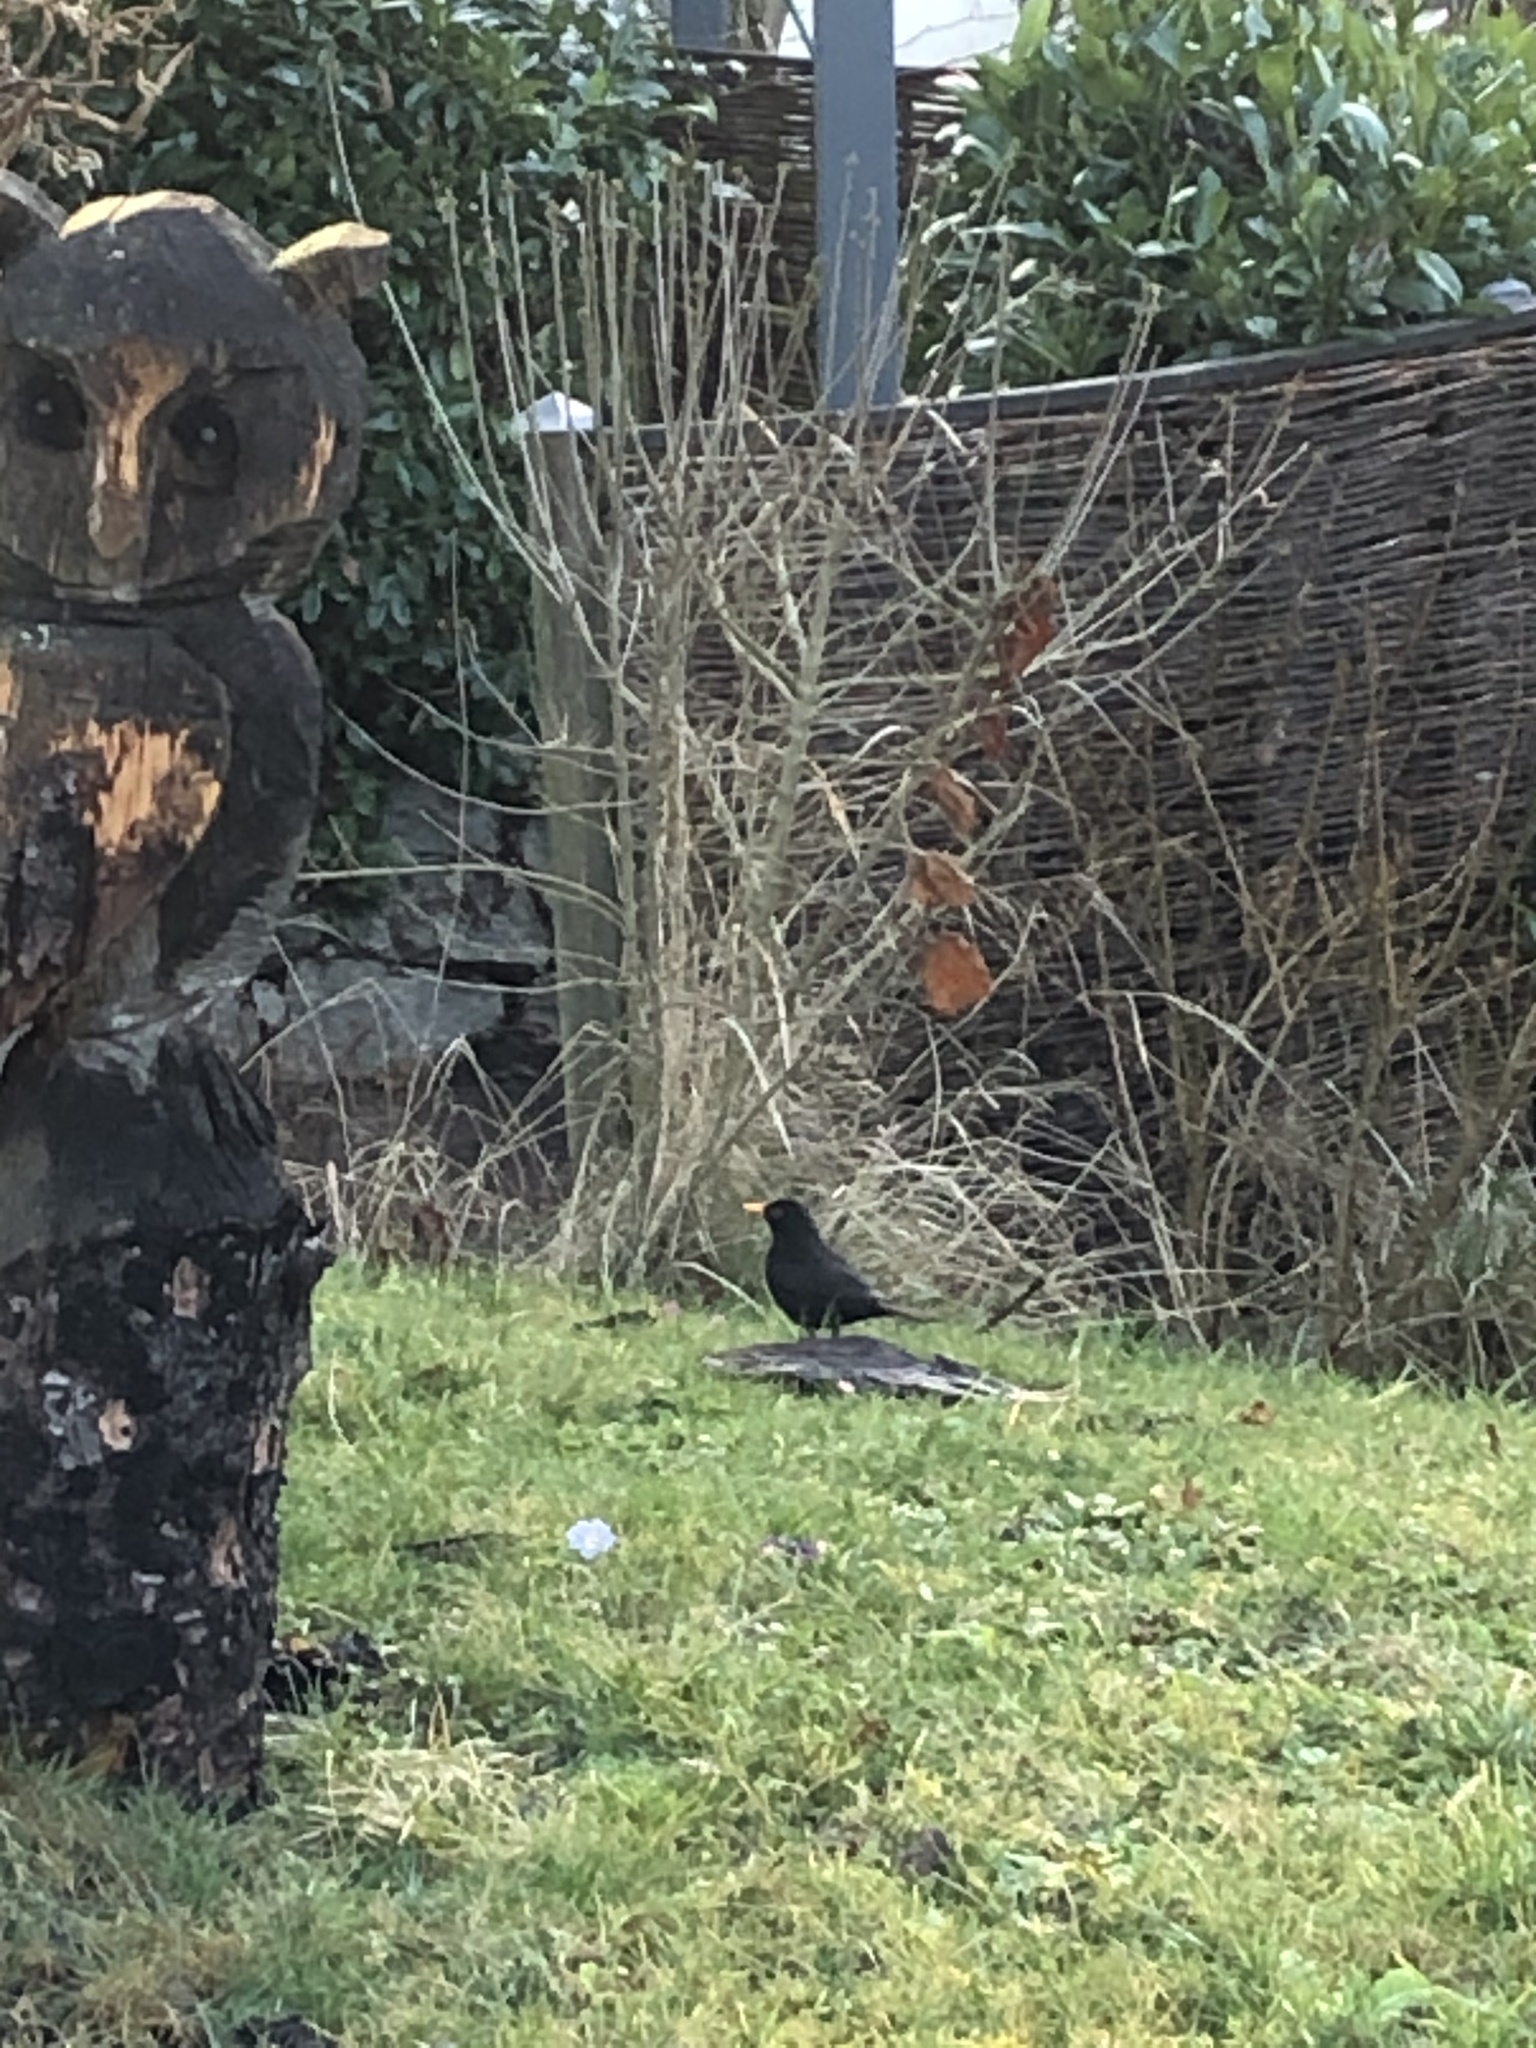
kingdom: Animalia
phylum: Chordata
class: Aves
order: Passeriformes
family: Turdidae
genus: Turdus
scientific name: Turdus merula
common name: Common blackbird
